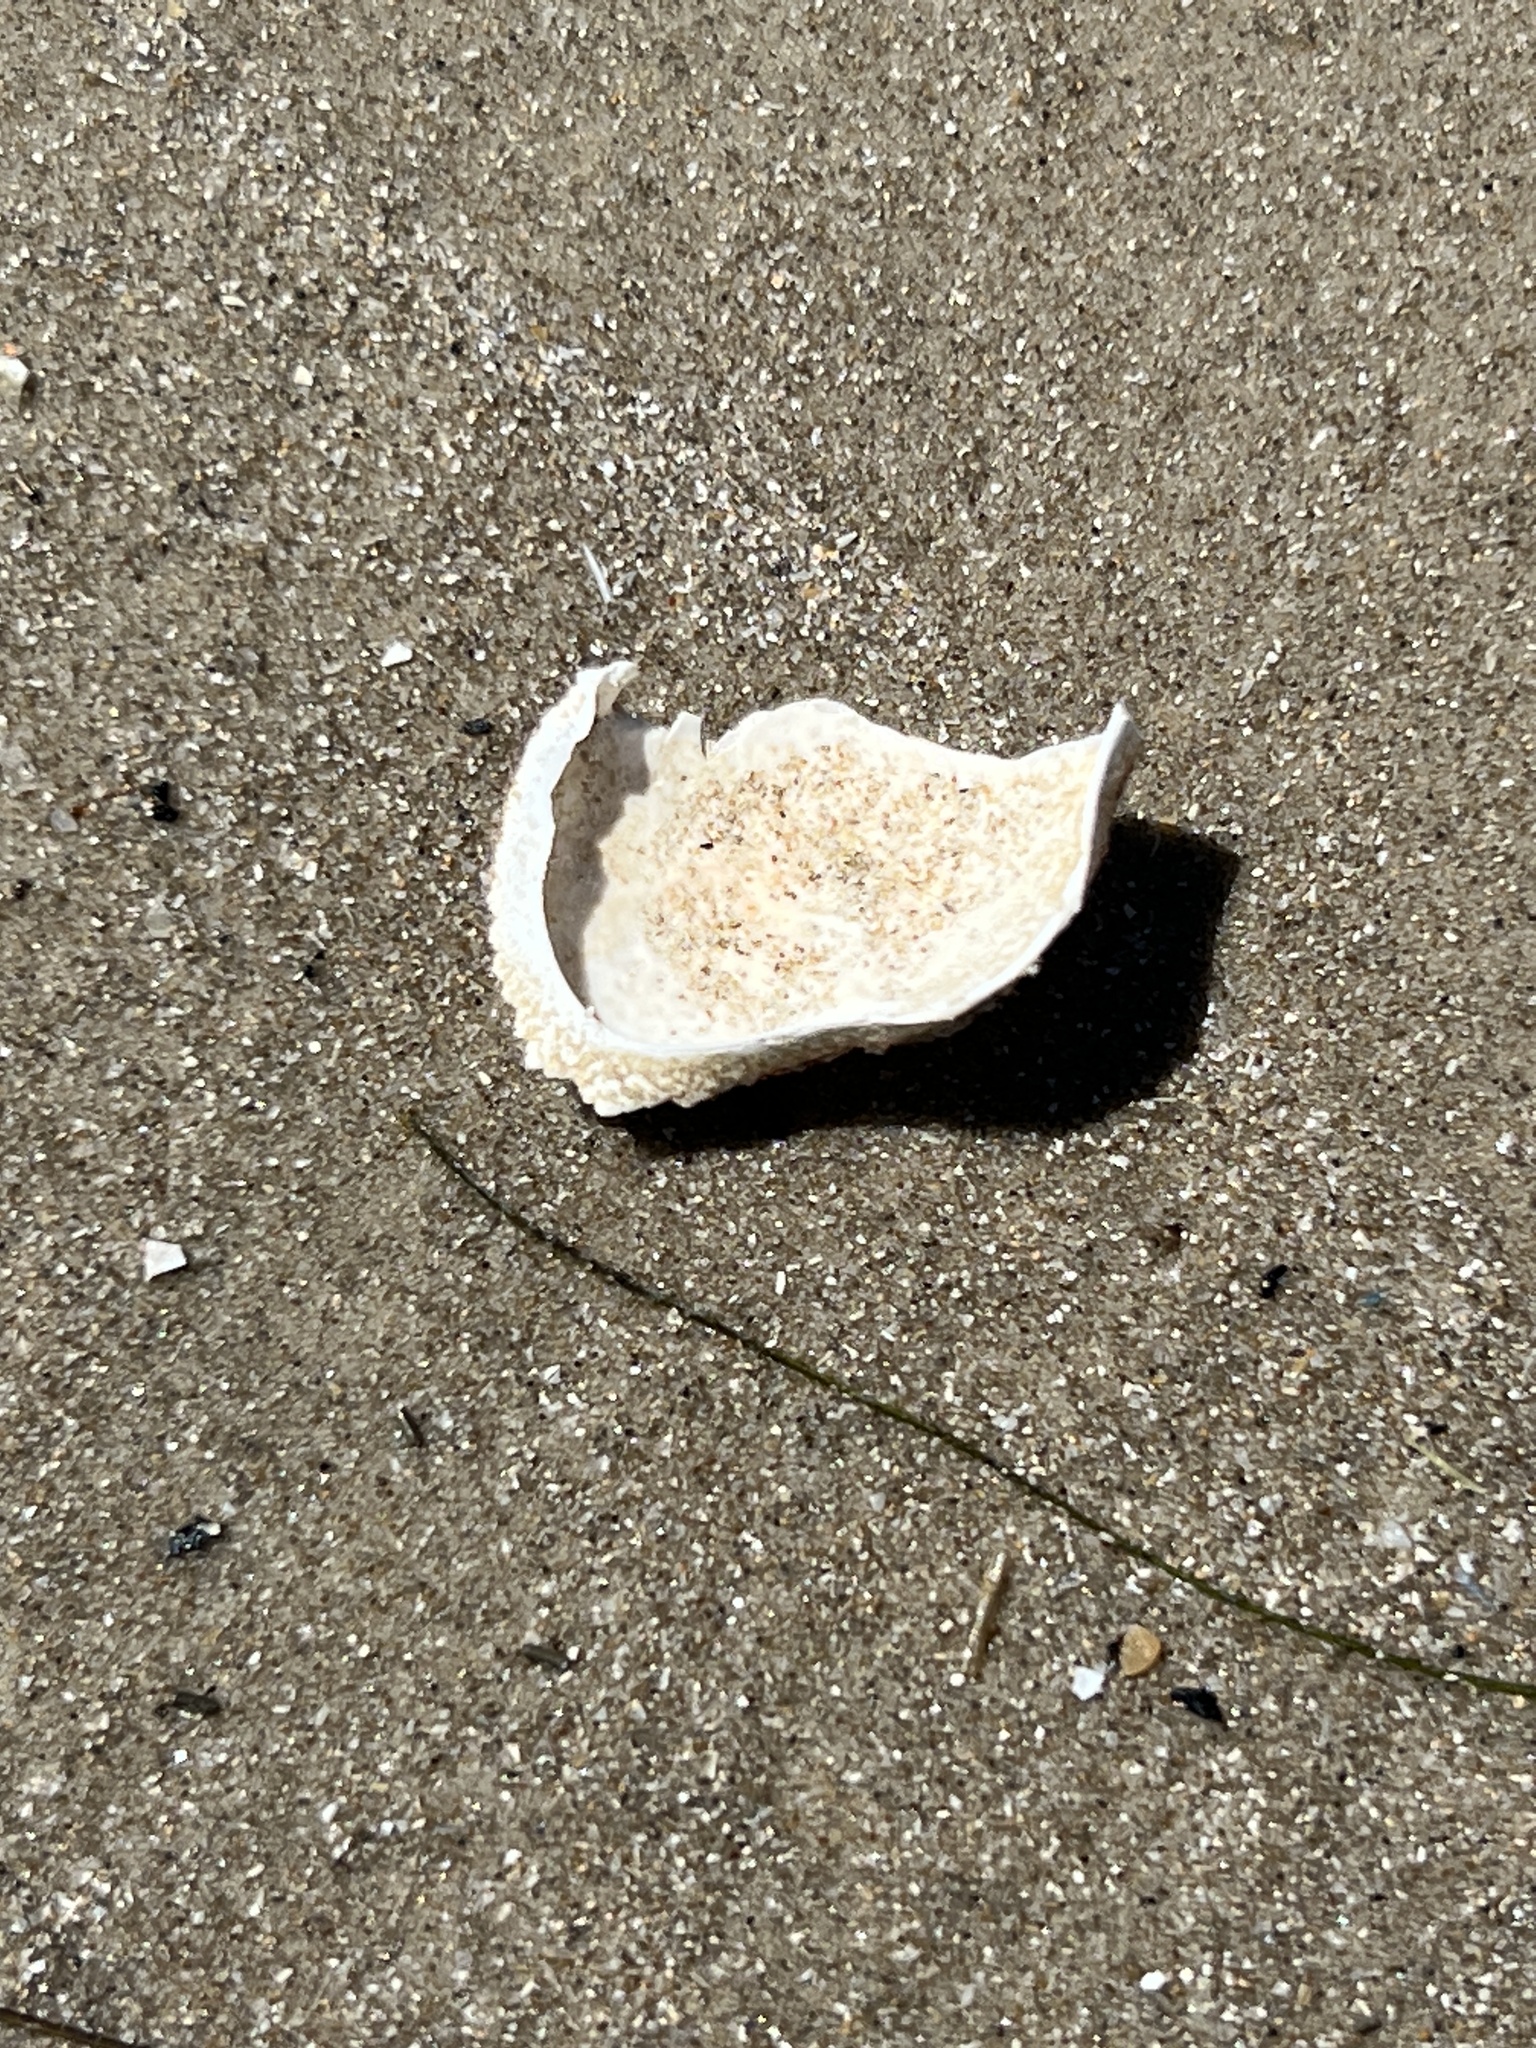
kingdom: Animalia
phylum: Arthropoda
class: Malacostraca
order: Decapoda
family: Aethridae
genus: Hepatus
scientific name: Hepatus epheliticus
